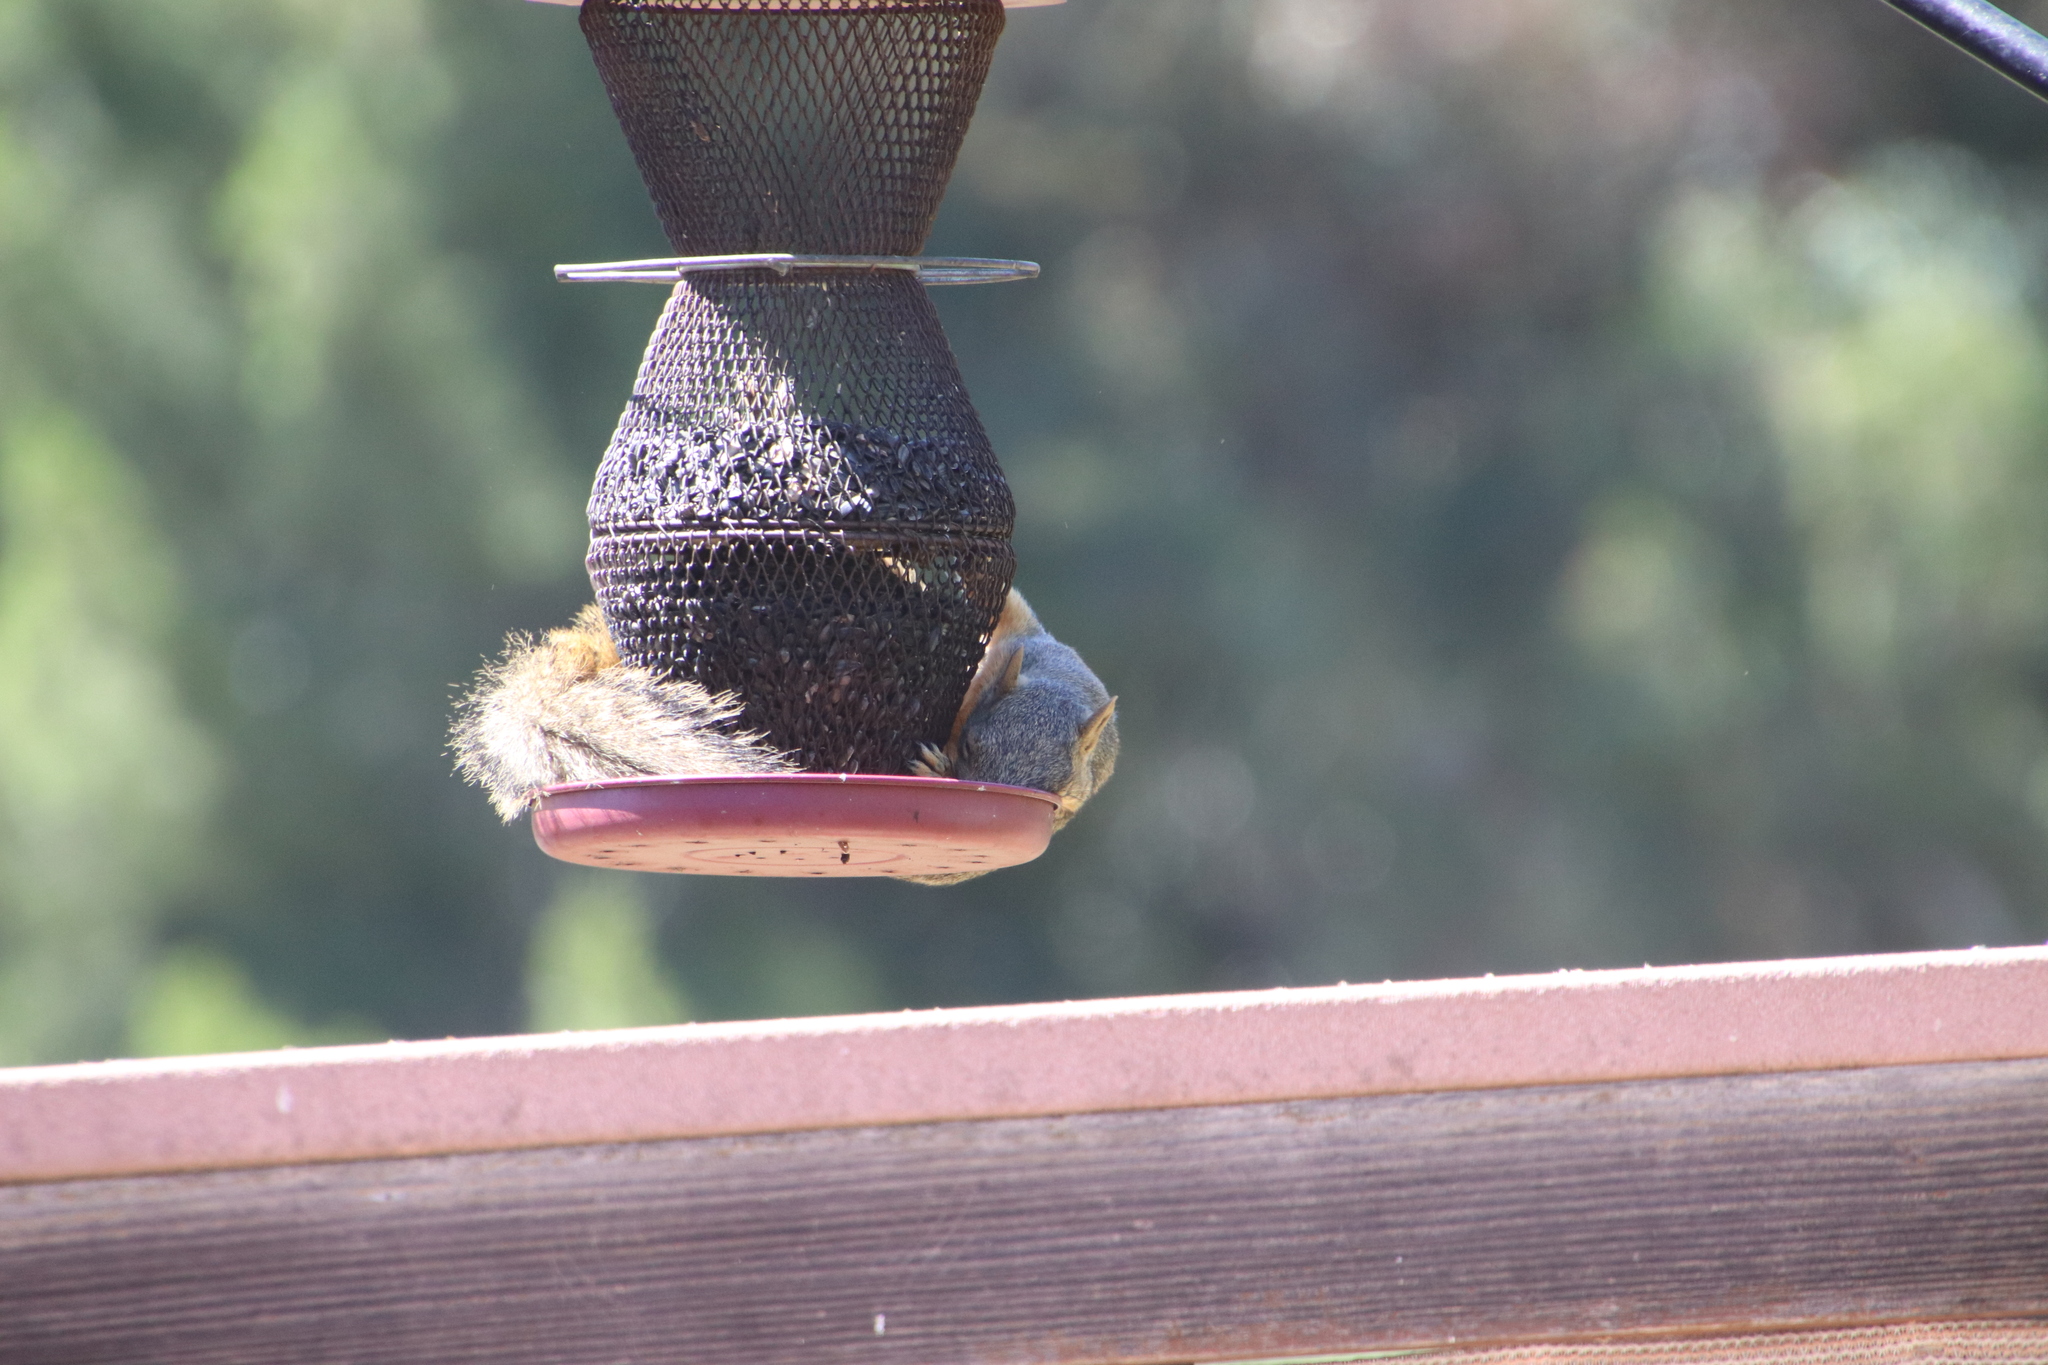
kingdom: Animalia
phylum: Chordata
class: Mammalia
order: Rodentia
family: Sciuridae
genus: Sciurus
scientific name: Sciurus niger
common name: Fox squirrel
